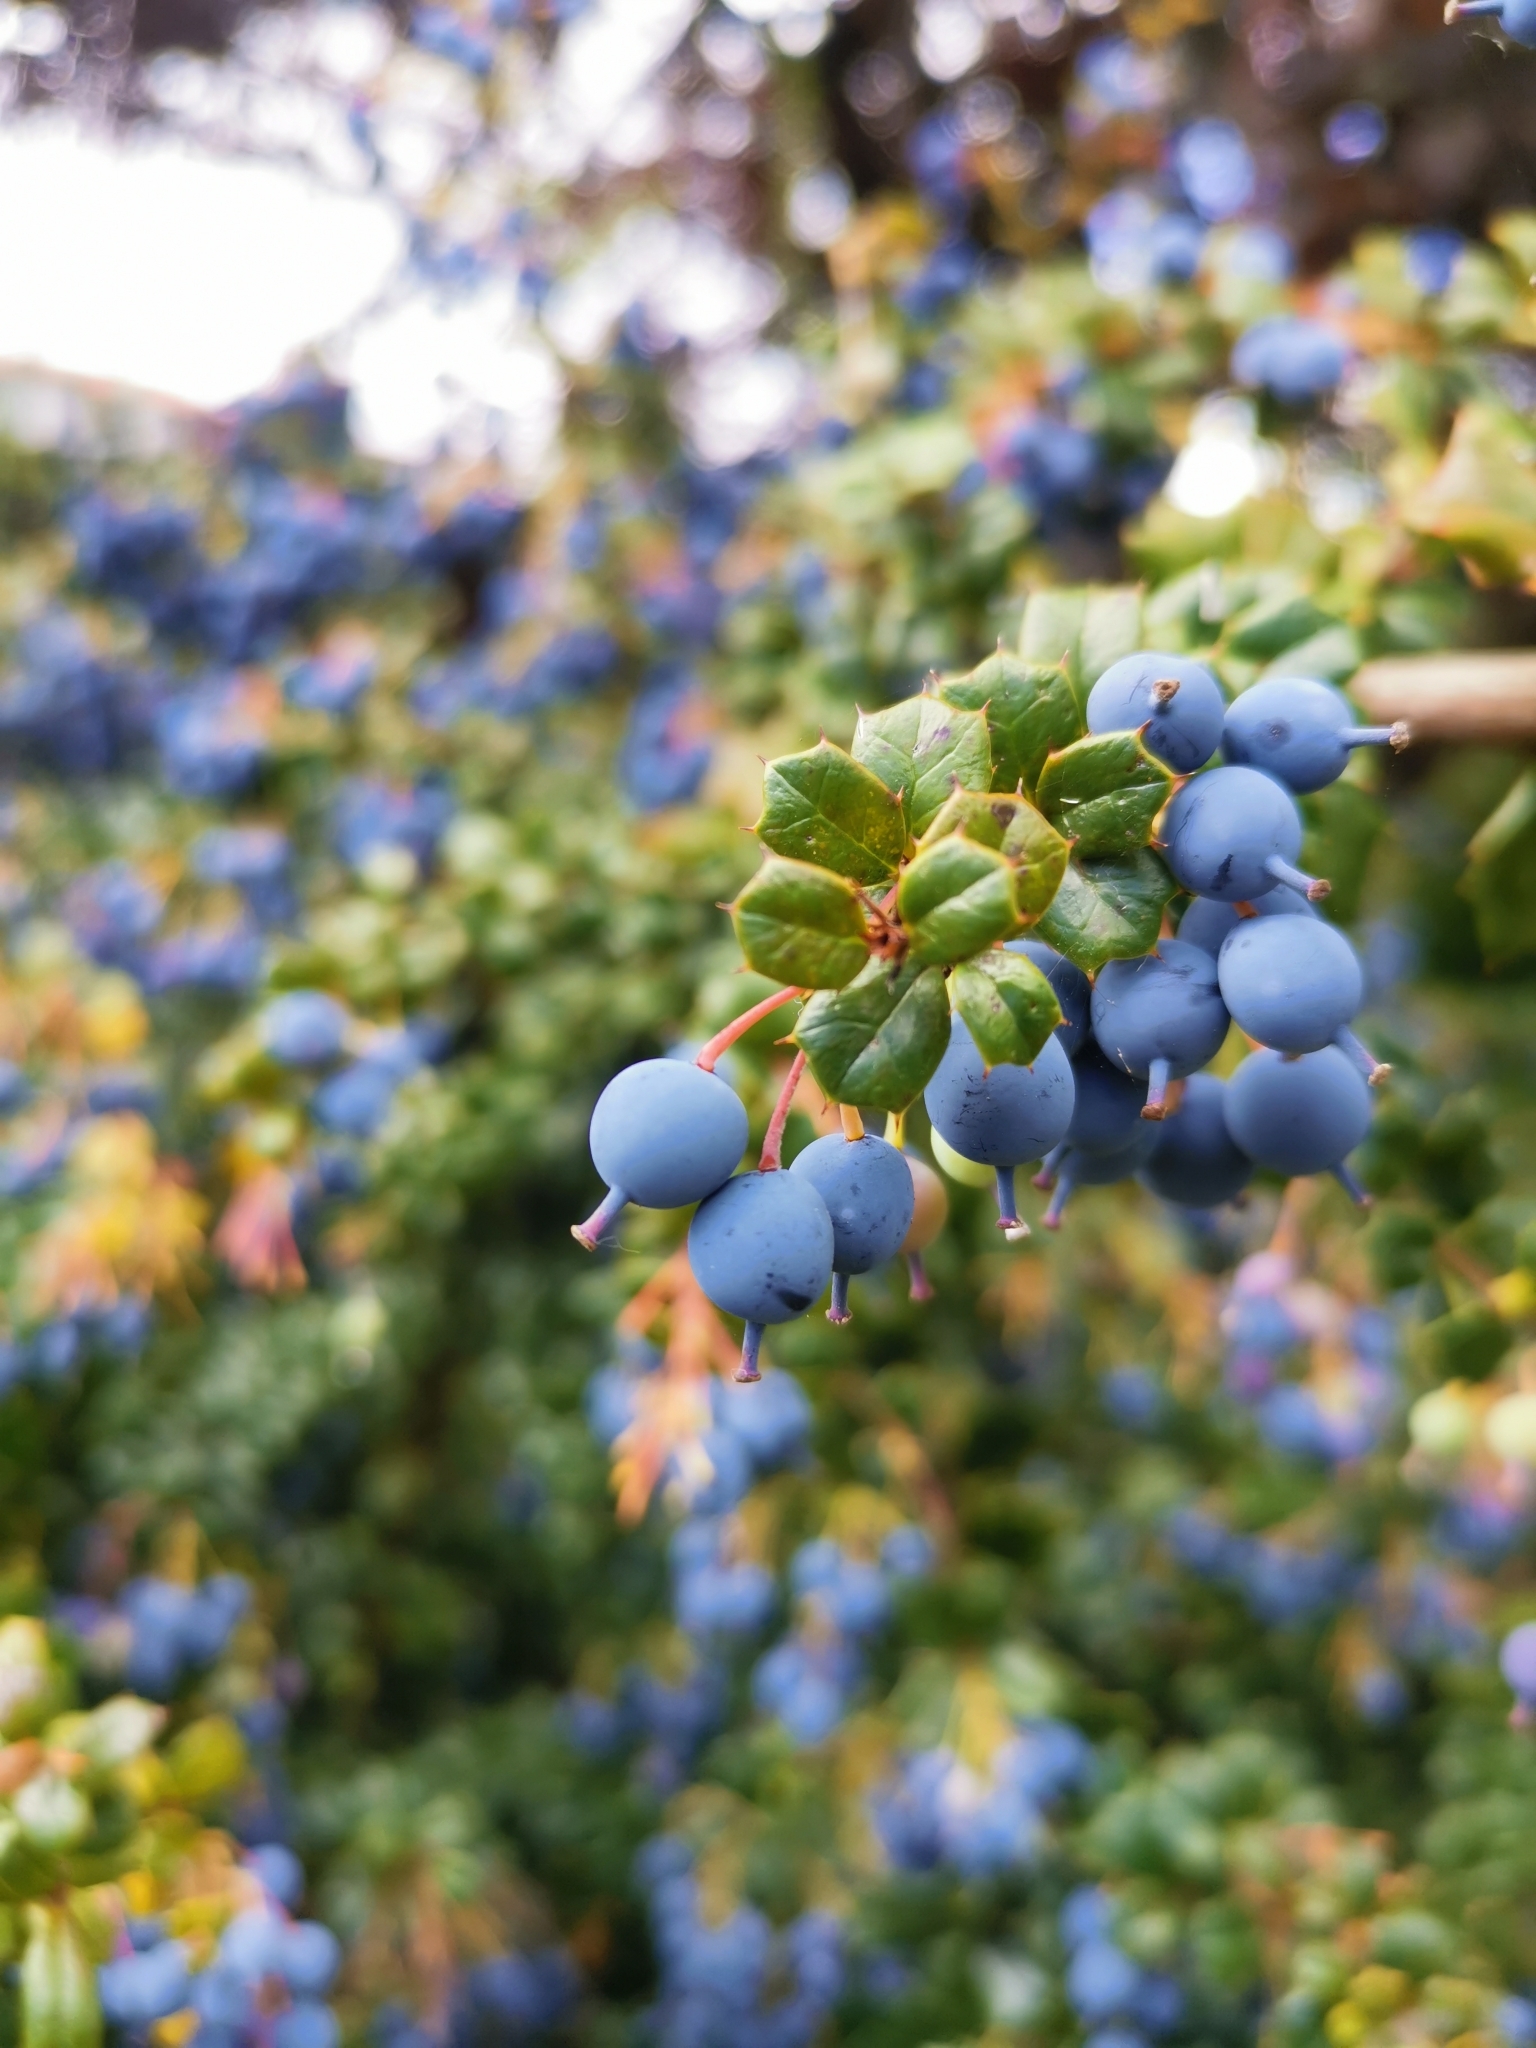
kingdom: Plantae
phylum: Tracheophyta
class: Magnoliopsida
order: Ranunculales
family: Berberidaceae
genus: Berberis
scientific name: Berberis darwinii
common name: Darwin's barberry
